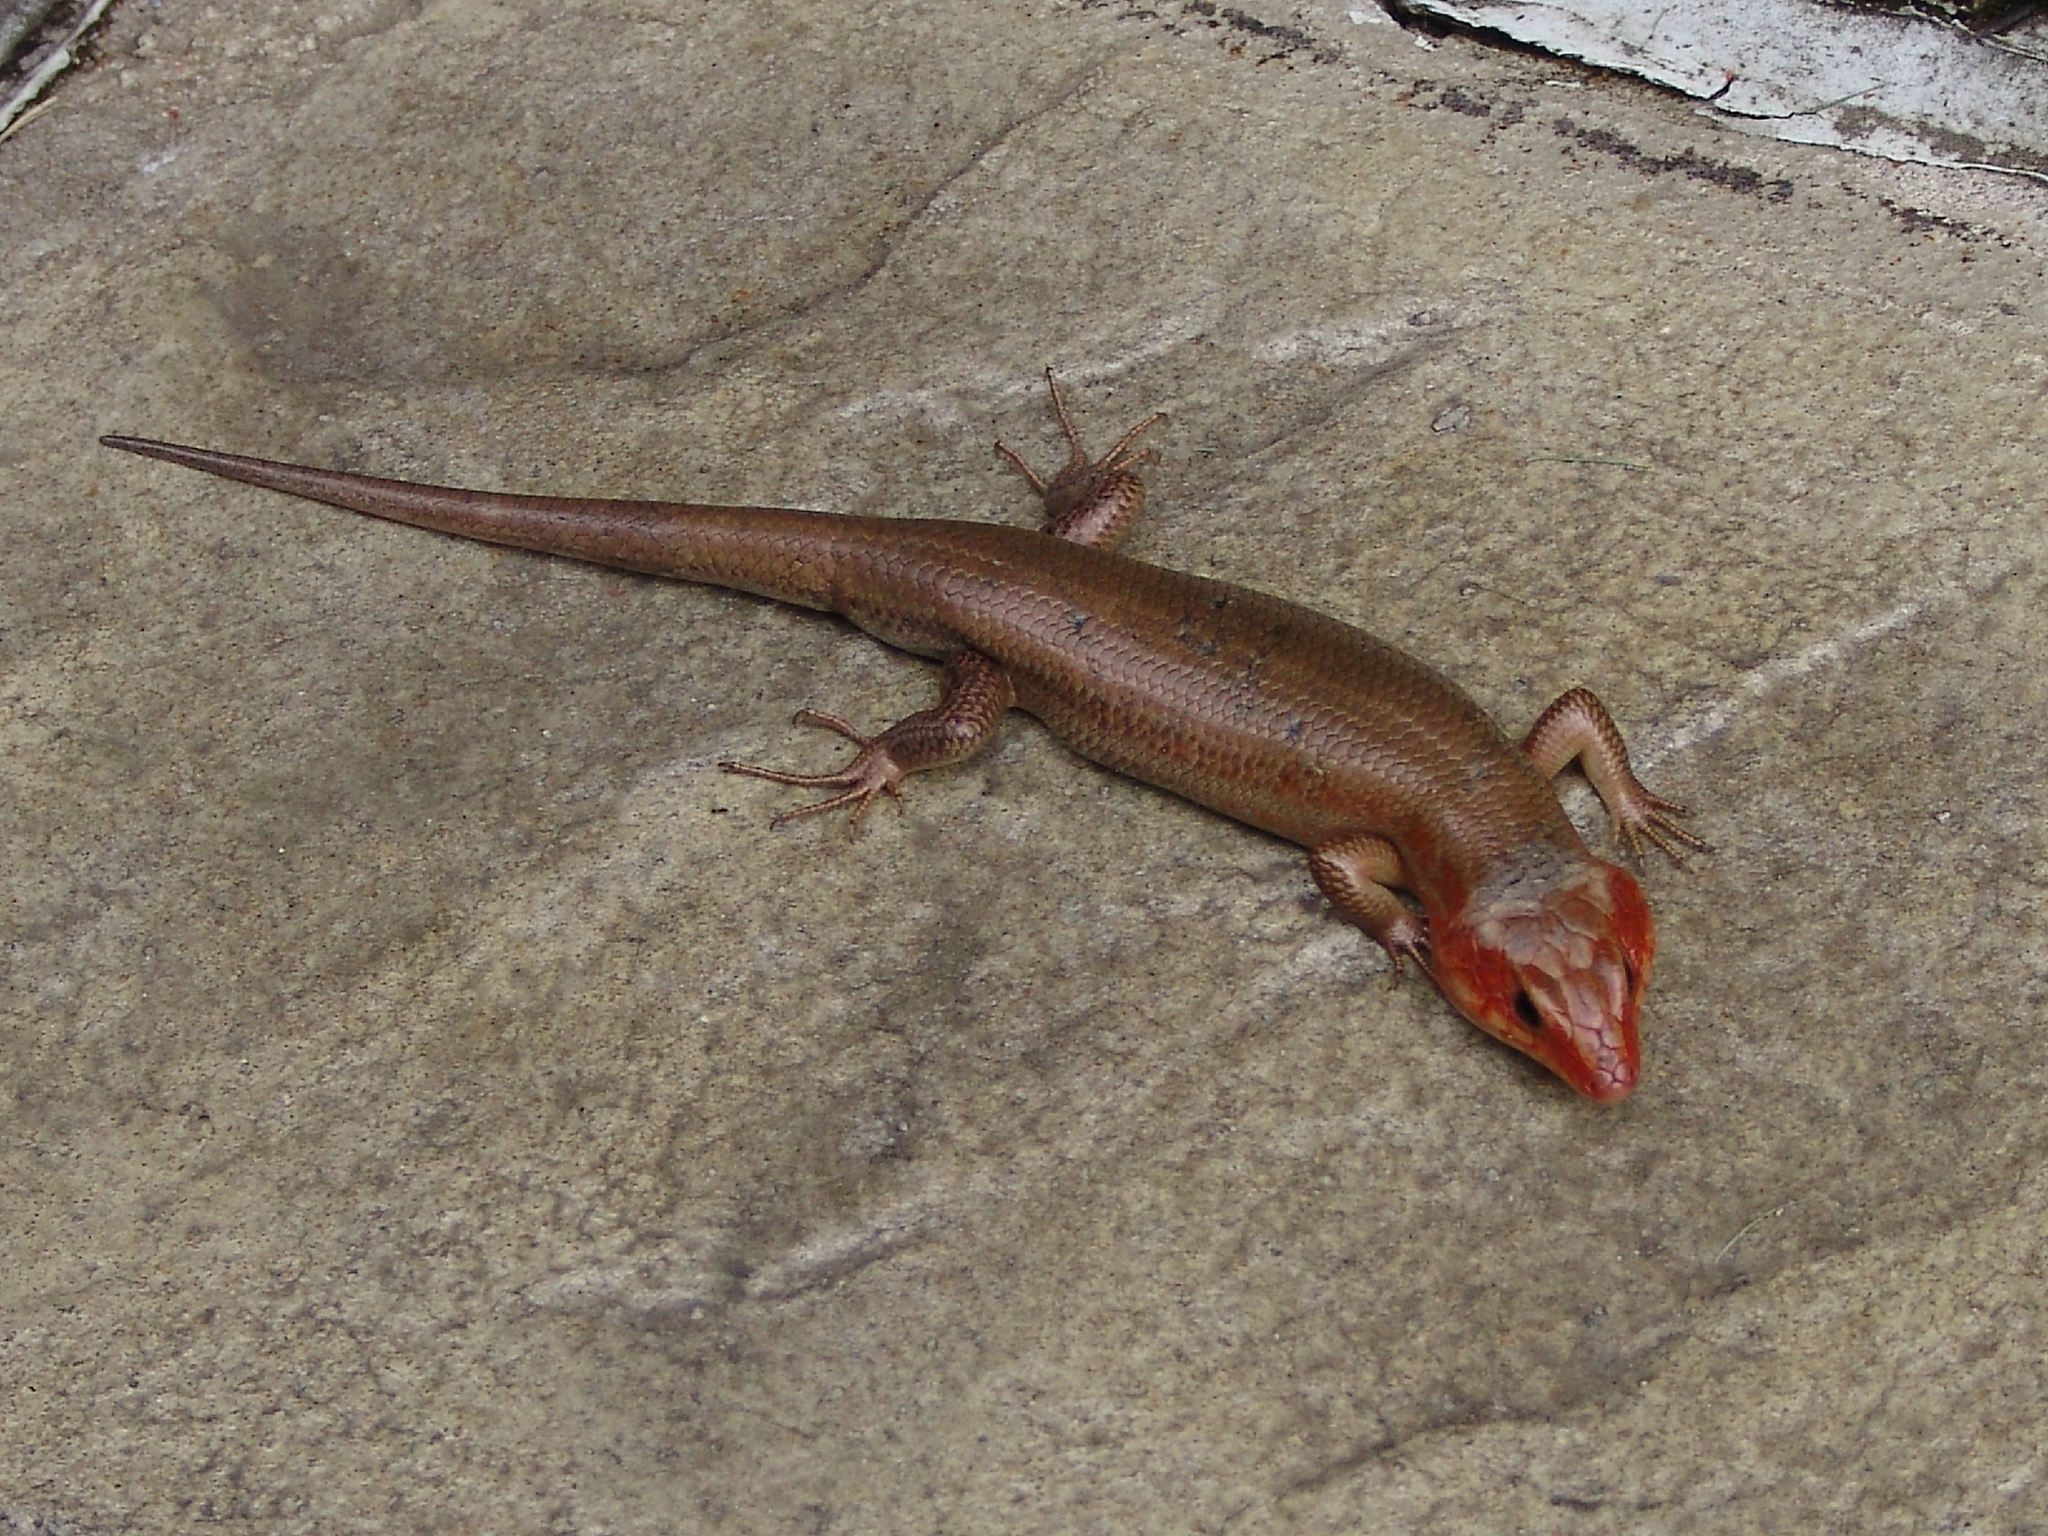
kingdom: Animalia
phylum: Chordata
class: Squamata
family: Scincidae
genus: Plestiodon
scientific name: Plestiodon laticeps
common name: Broadhead skink
